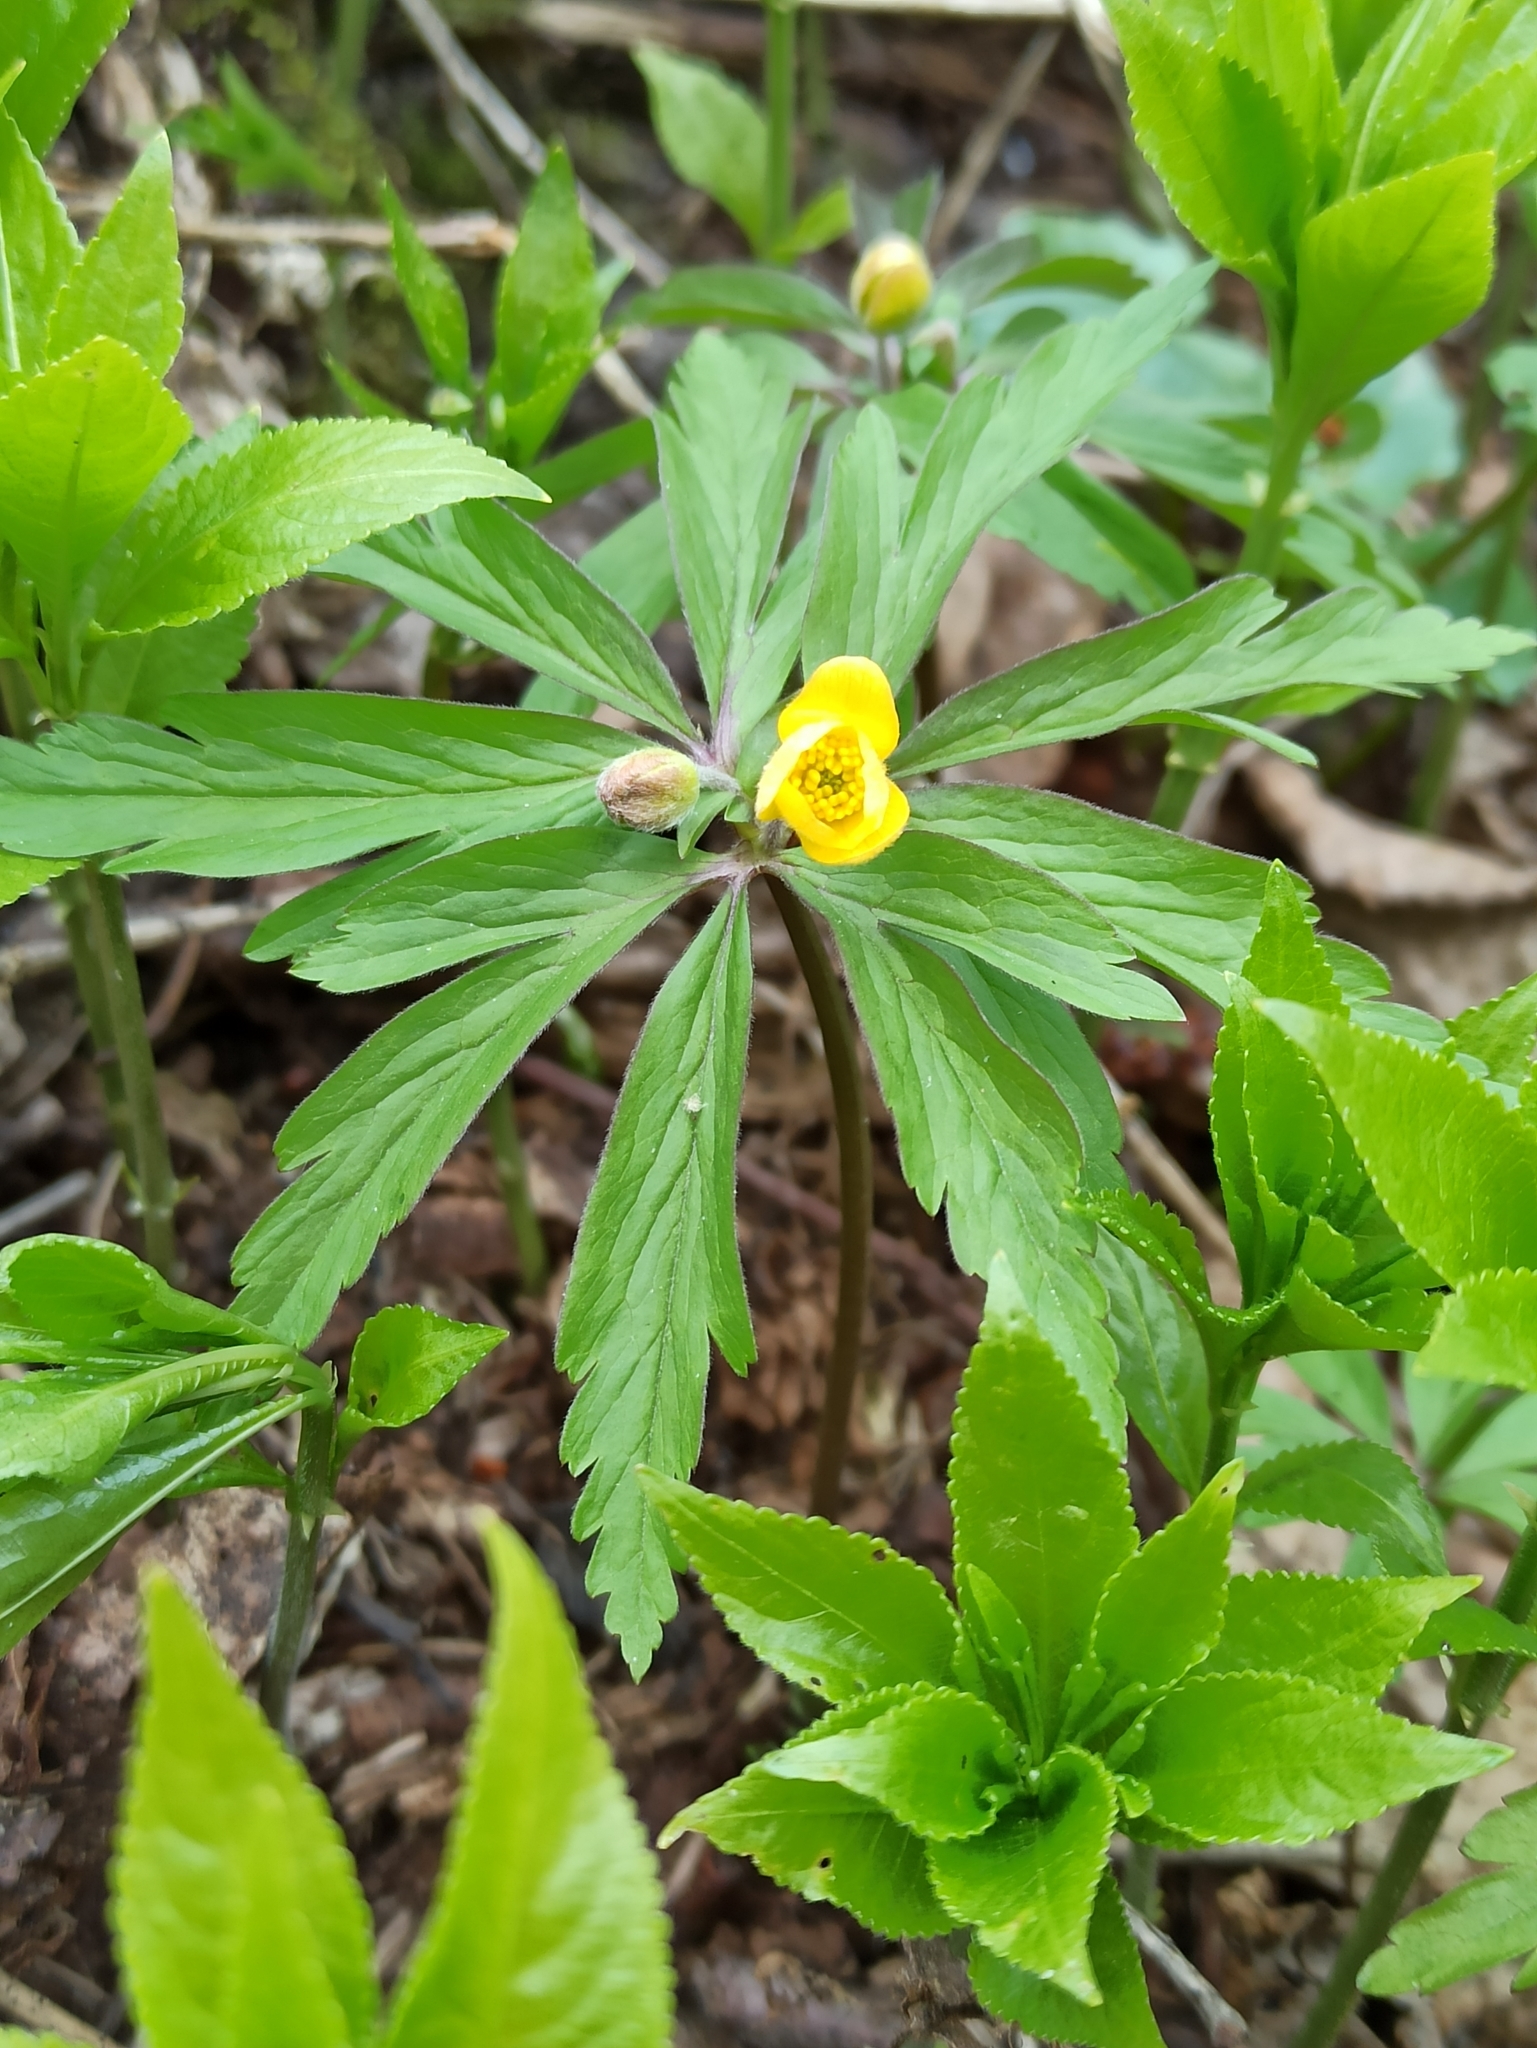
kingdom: Plantae
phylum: Tracheophyta
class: Magnoliopsida
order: Ranunculales
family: Ranunculaceae
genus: Anemone
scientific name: Anemone ranunculoides
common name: Yellow anemone
